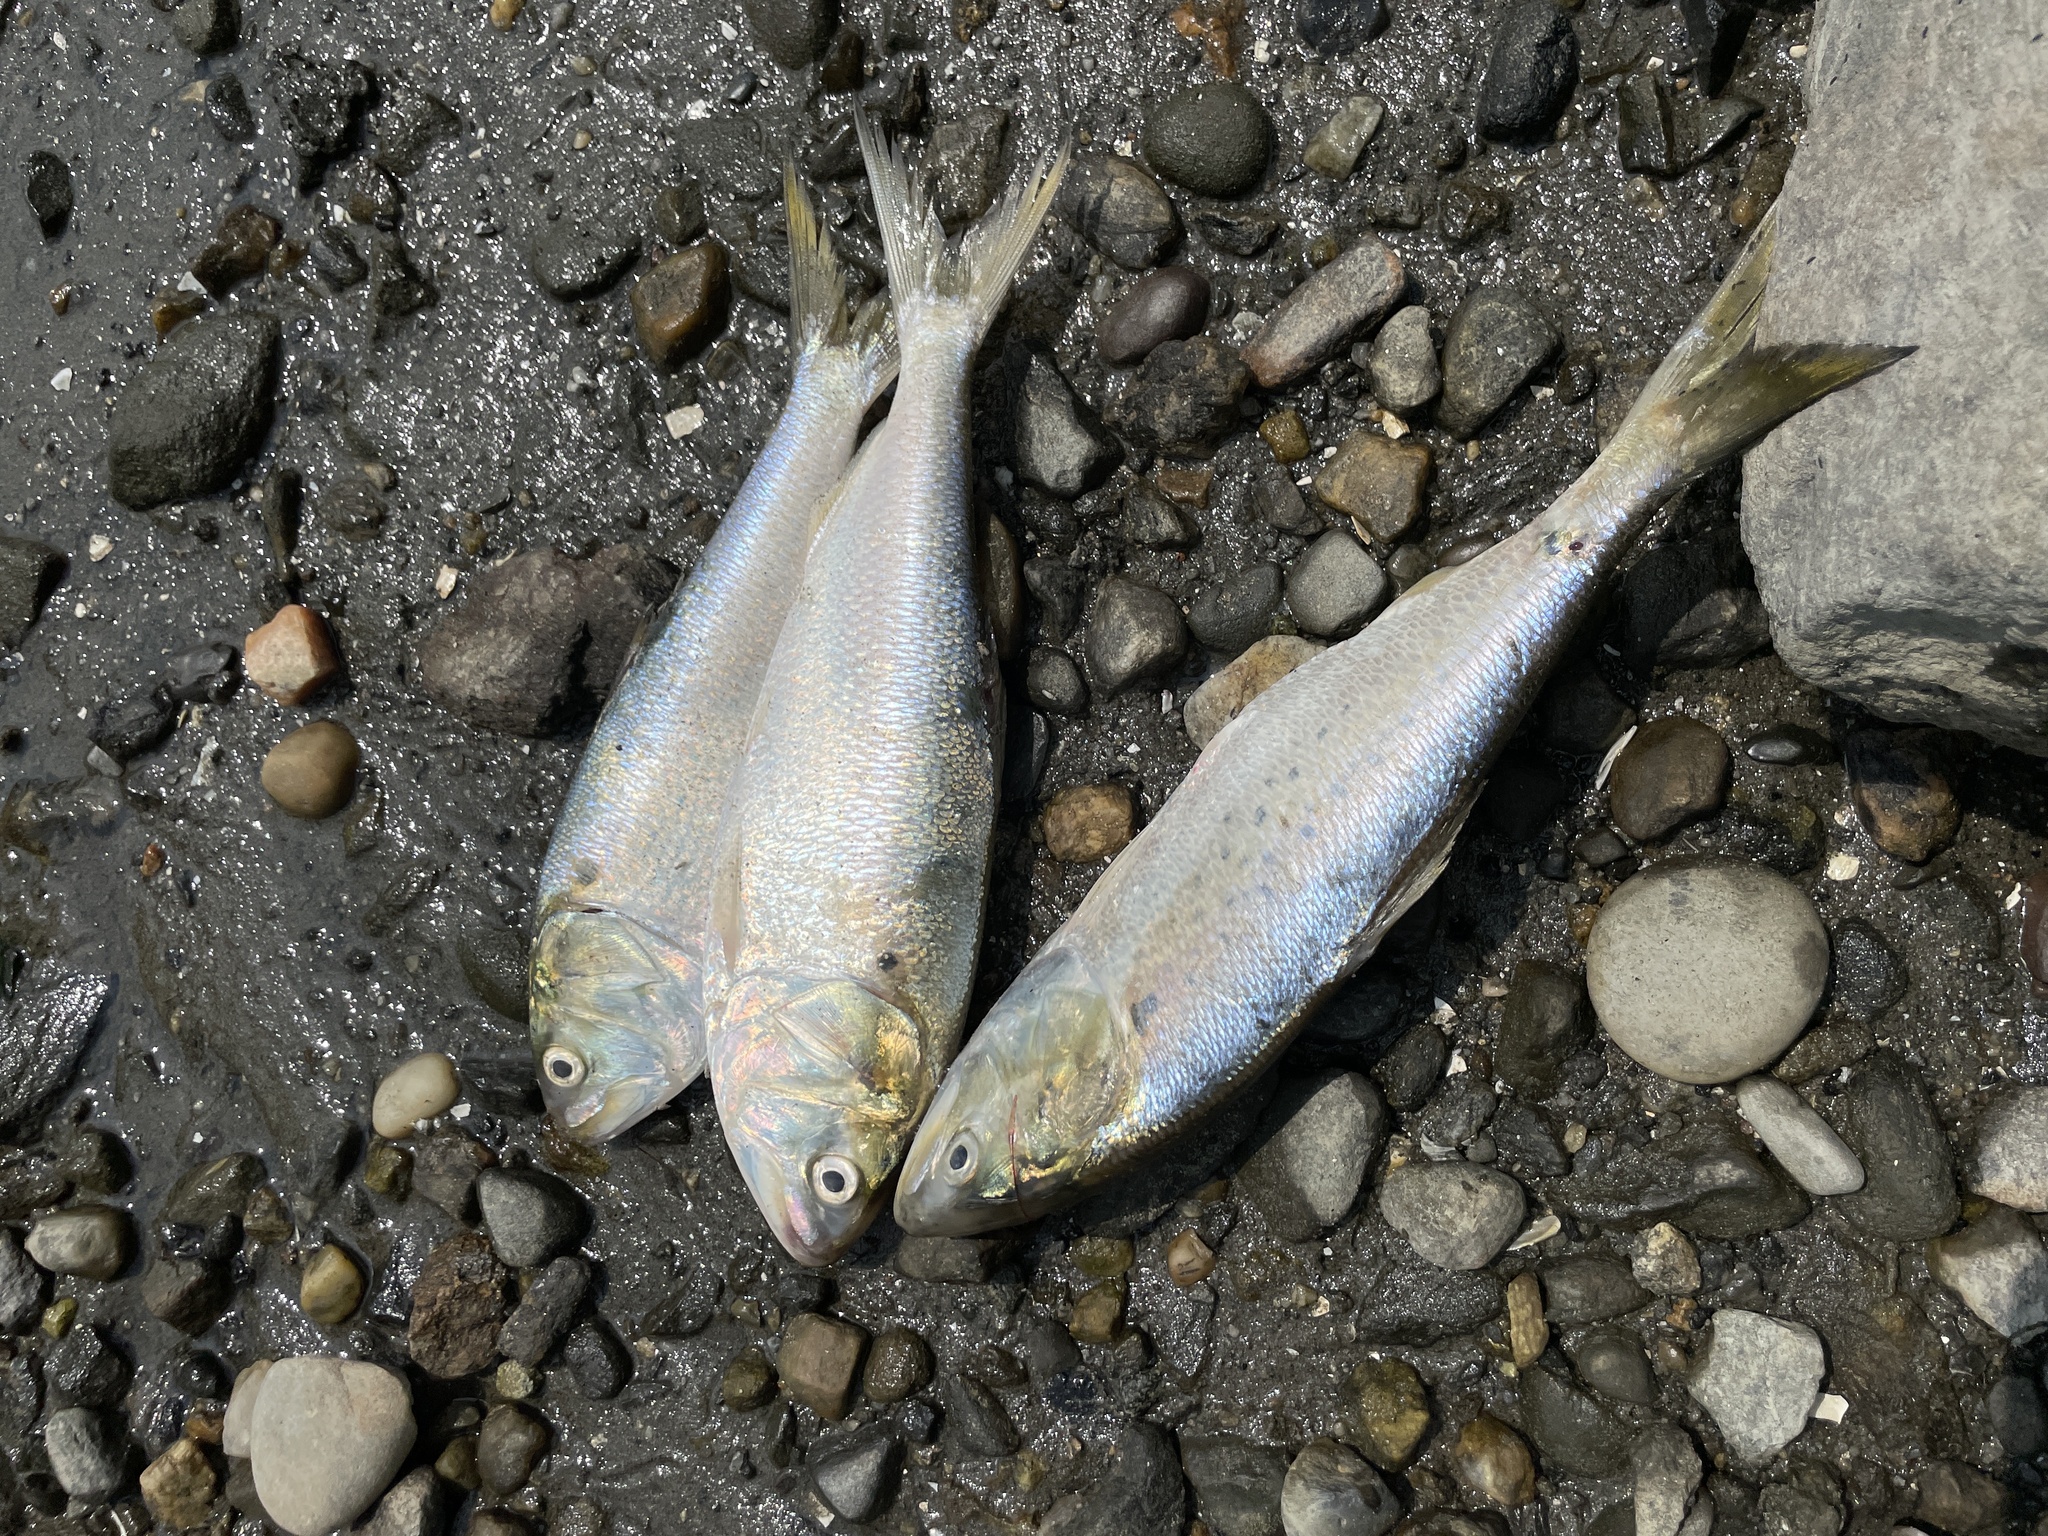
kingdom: Animalia
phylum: Chordata
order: Clupeiformes
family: Clupeidae
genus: Brevoortia
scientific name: Brevoortia tyrannus
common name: Atlantic menhaden
